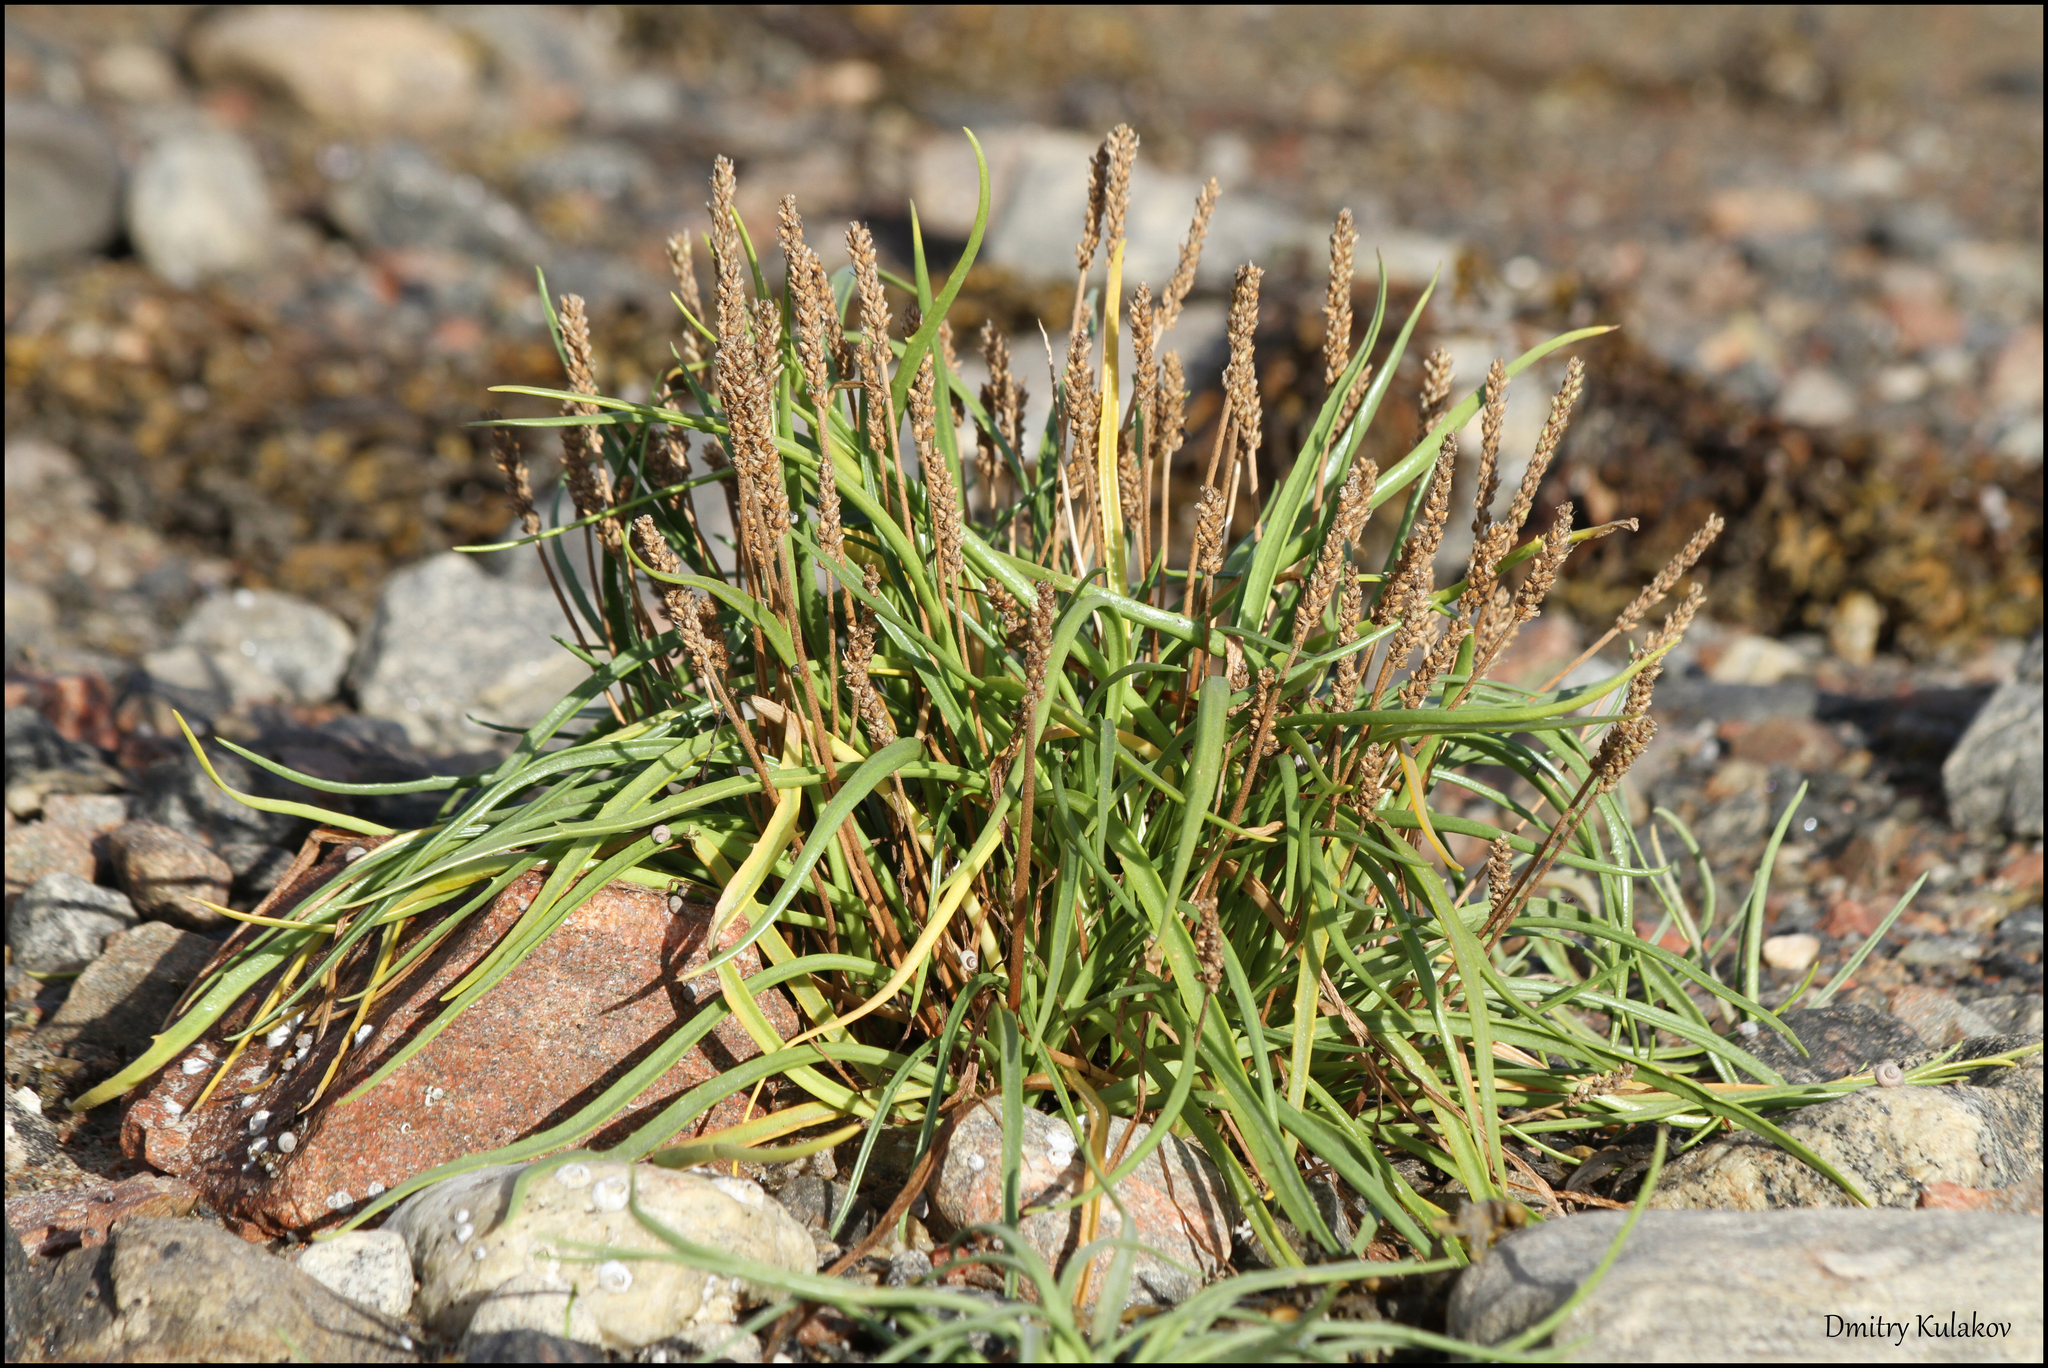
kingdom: Plantae
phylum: Tracheophyta
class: Magnoliopsida
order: Lamiales
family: Plantaginaceae
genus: Plantago
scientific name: Plantago maritima
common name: Sea plantain
